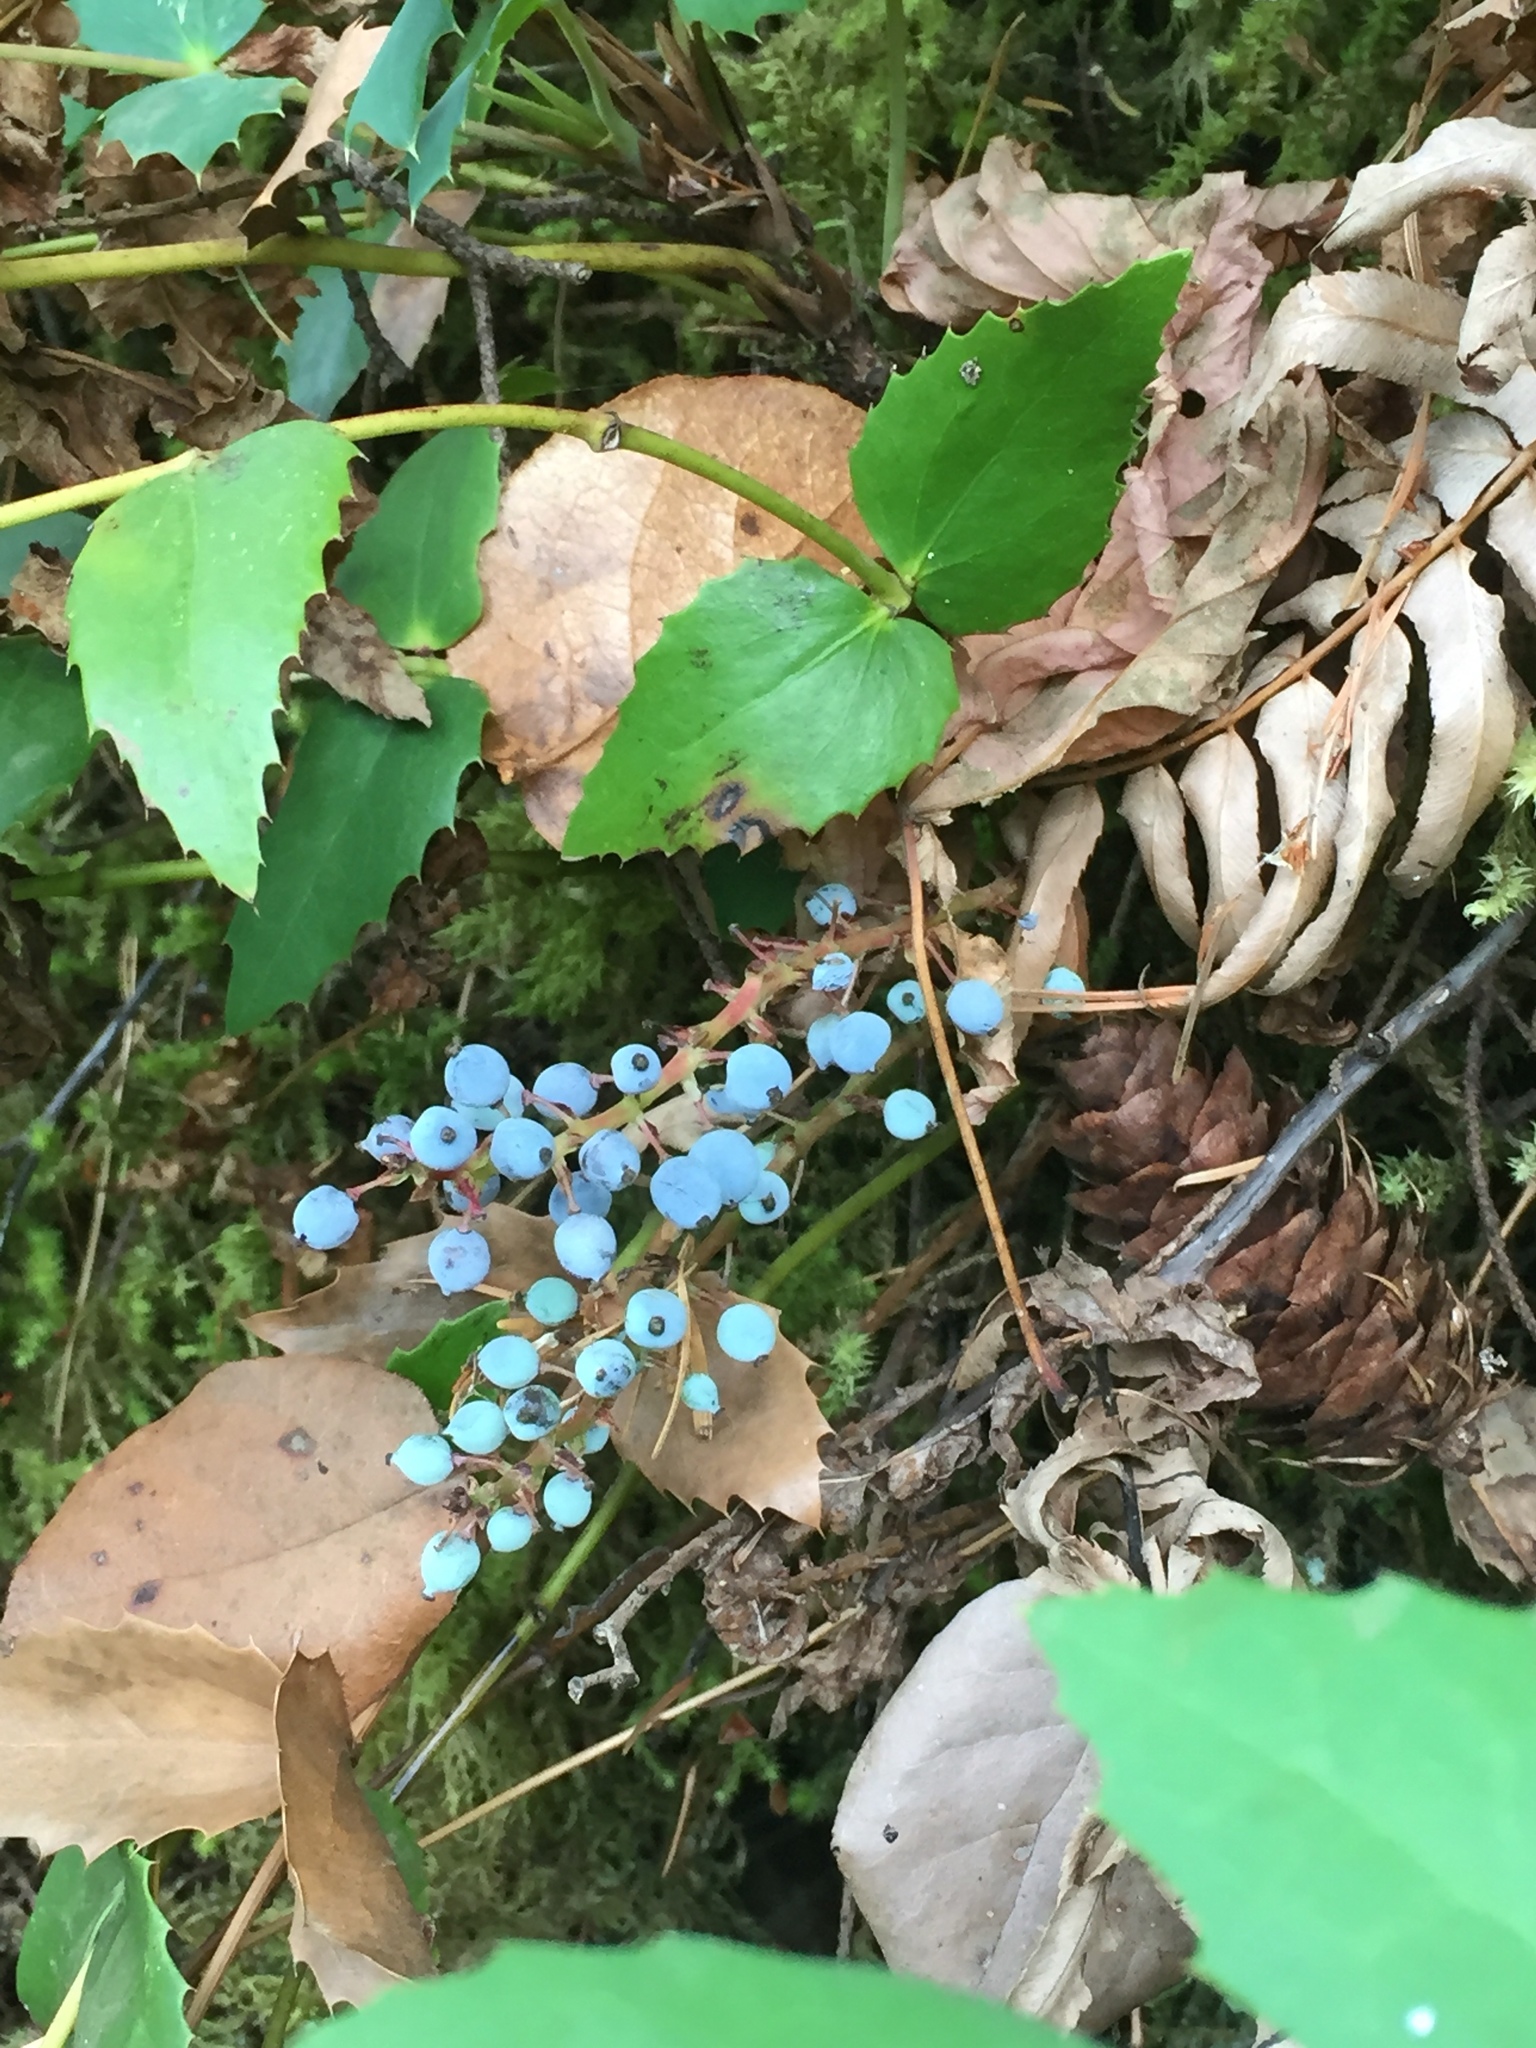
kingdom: Plantae
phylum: Tracheophyta
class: Magnoliopsida
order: Ranunculales
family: Berberidaceae
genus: Mahonia
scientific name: Mahonia nervosa
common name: Cascade oregon-grape
